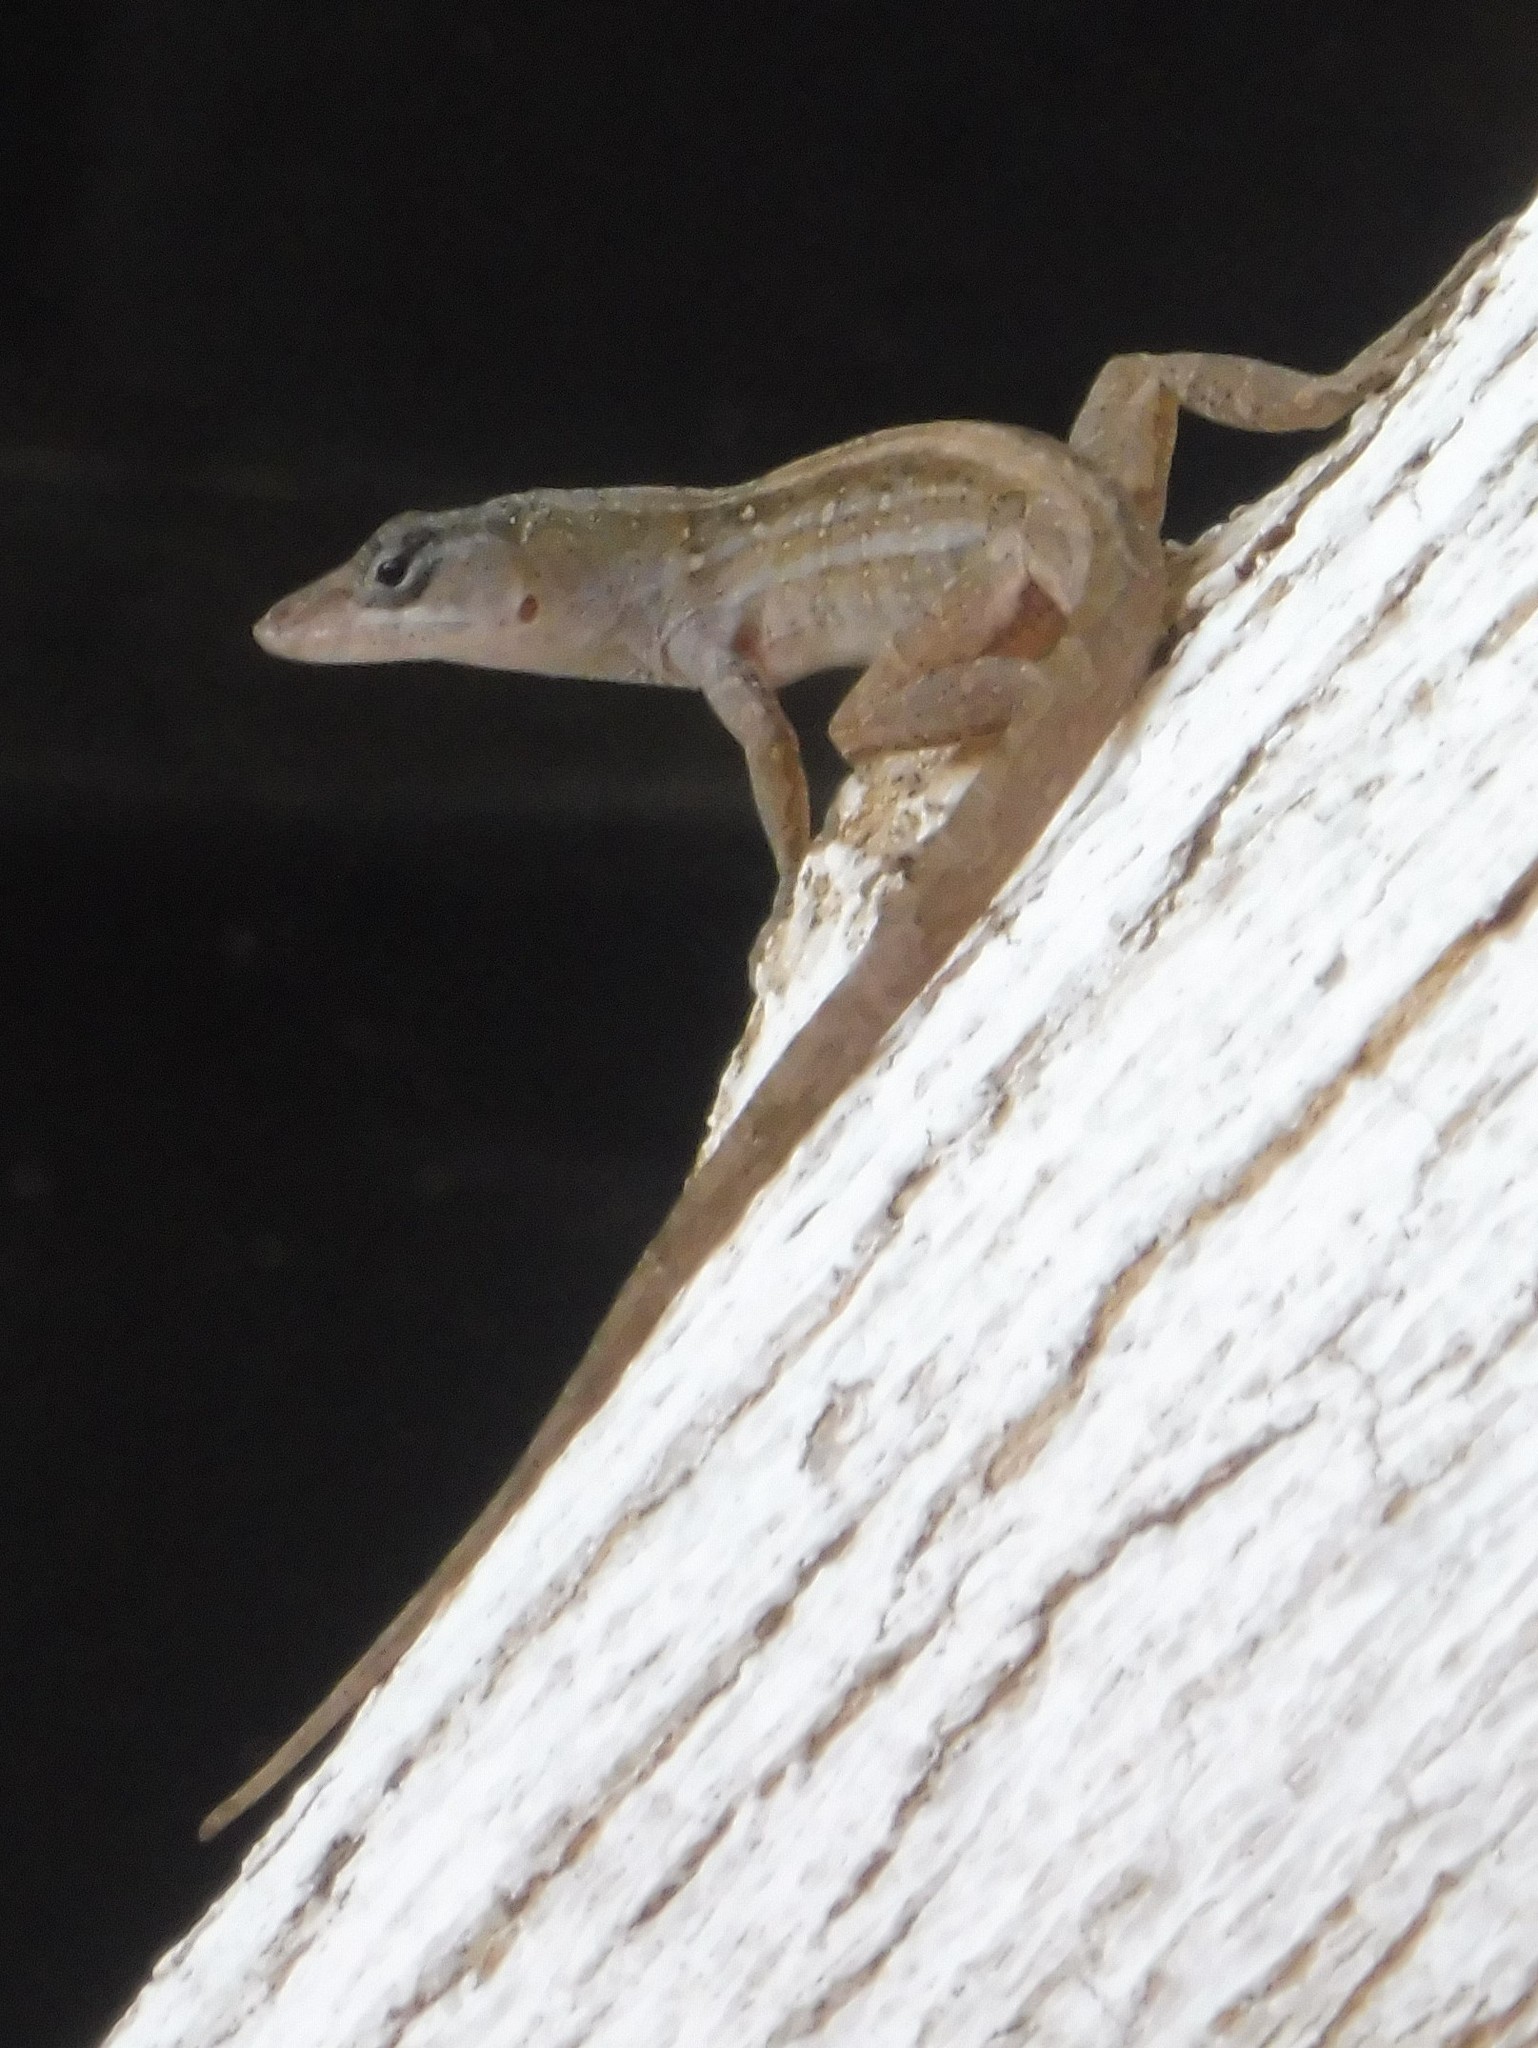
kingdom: Animalia
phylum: Chordata
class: Squamata
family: Dactyloidae
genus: Anolis
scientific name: Anolis sagrei
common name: Brown anole
